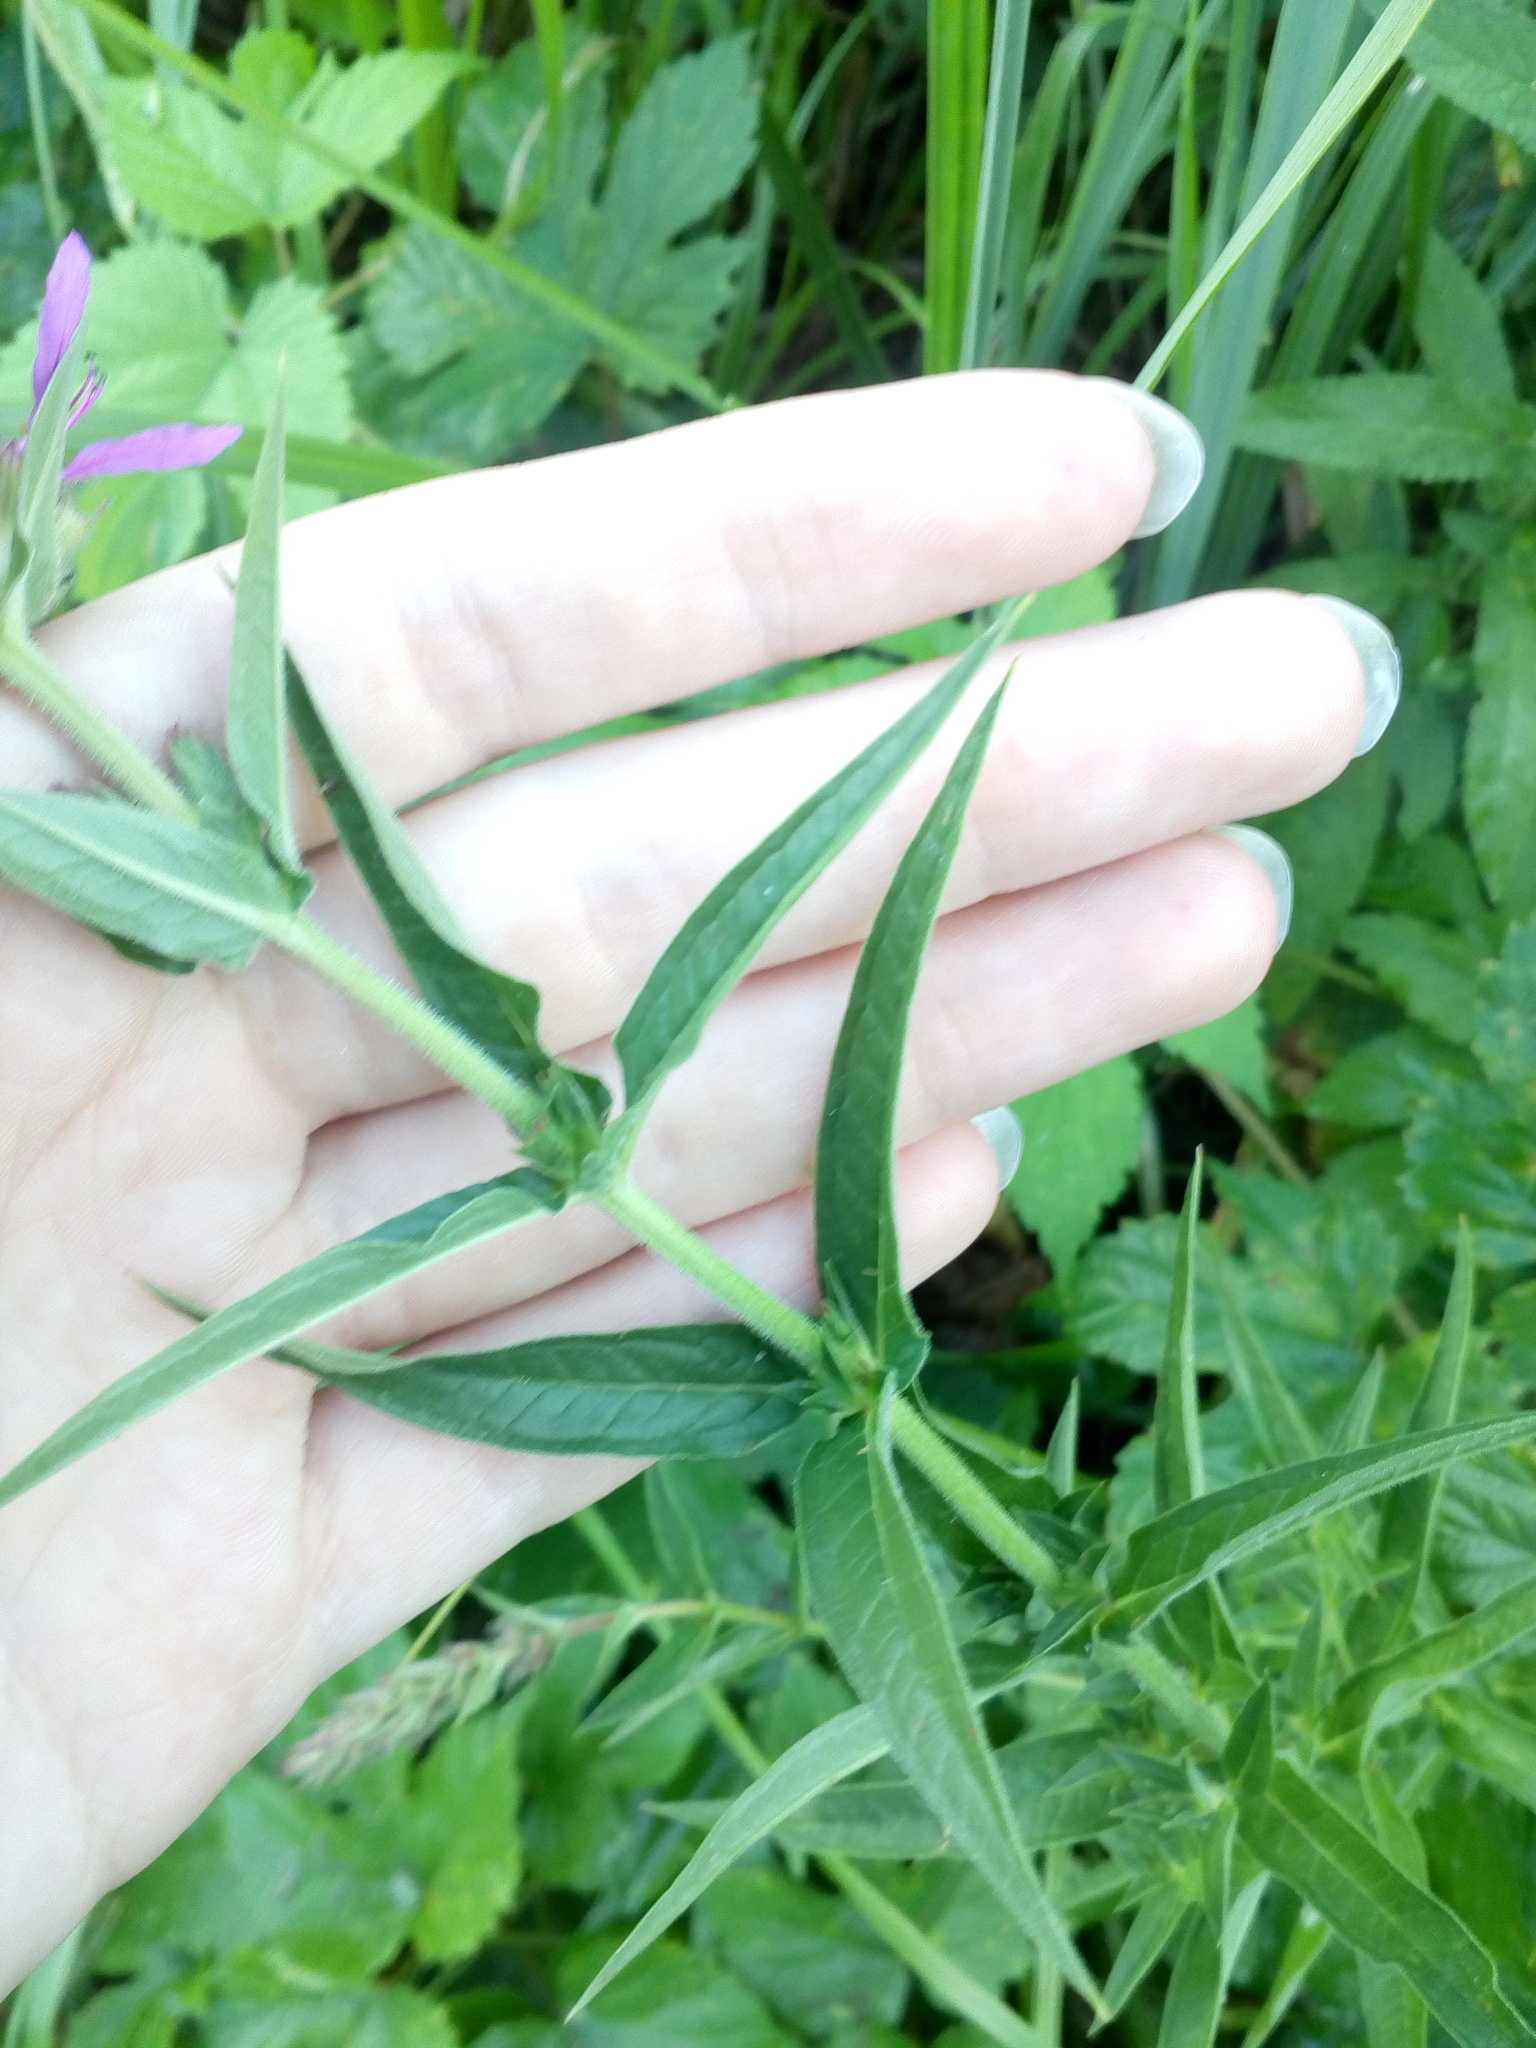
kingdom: Plantae
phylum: Tracheophyta
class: Magnoliopsida
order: Myrtales
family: Lythraceae
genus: Lythrum
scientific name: Lythrum salicaria
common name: Purple loosestrife
